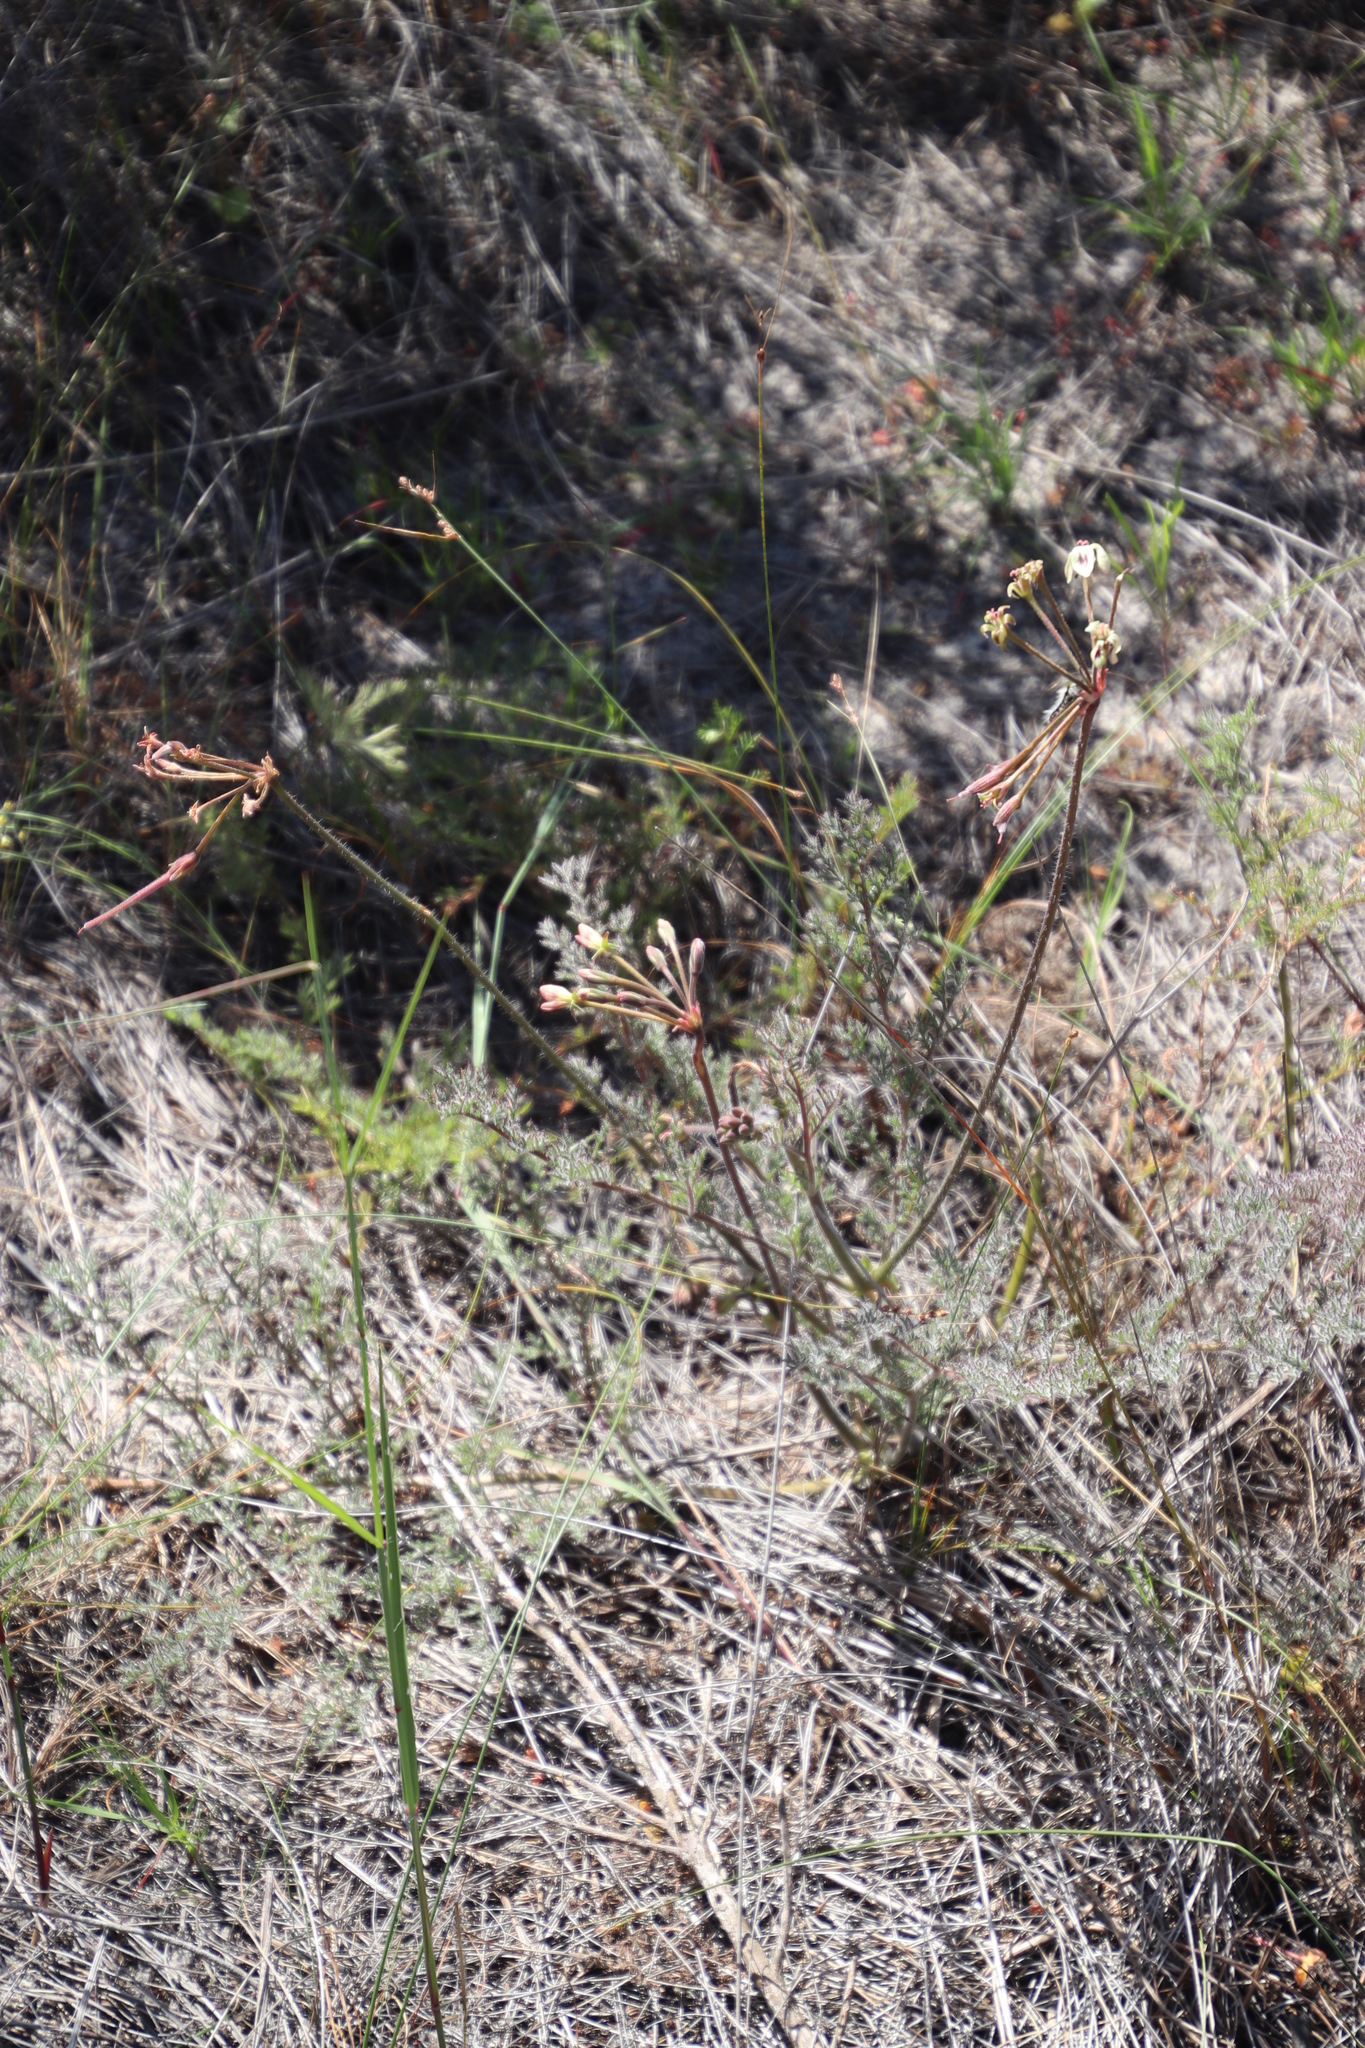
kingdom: Plantae
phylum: Tracheophyta
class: Magnoliopsida
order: Geraniales
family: Geraniaceae
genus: Pelargonium
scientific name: Pelargonium triste
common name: Night-scent pelargonium
